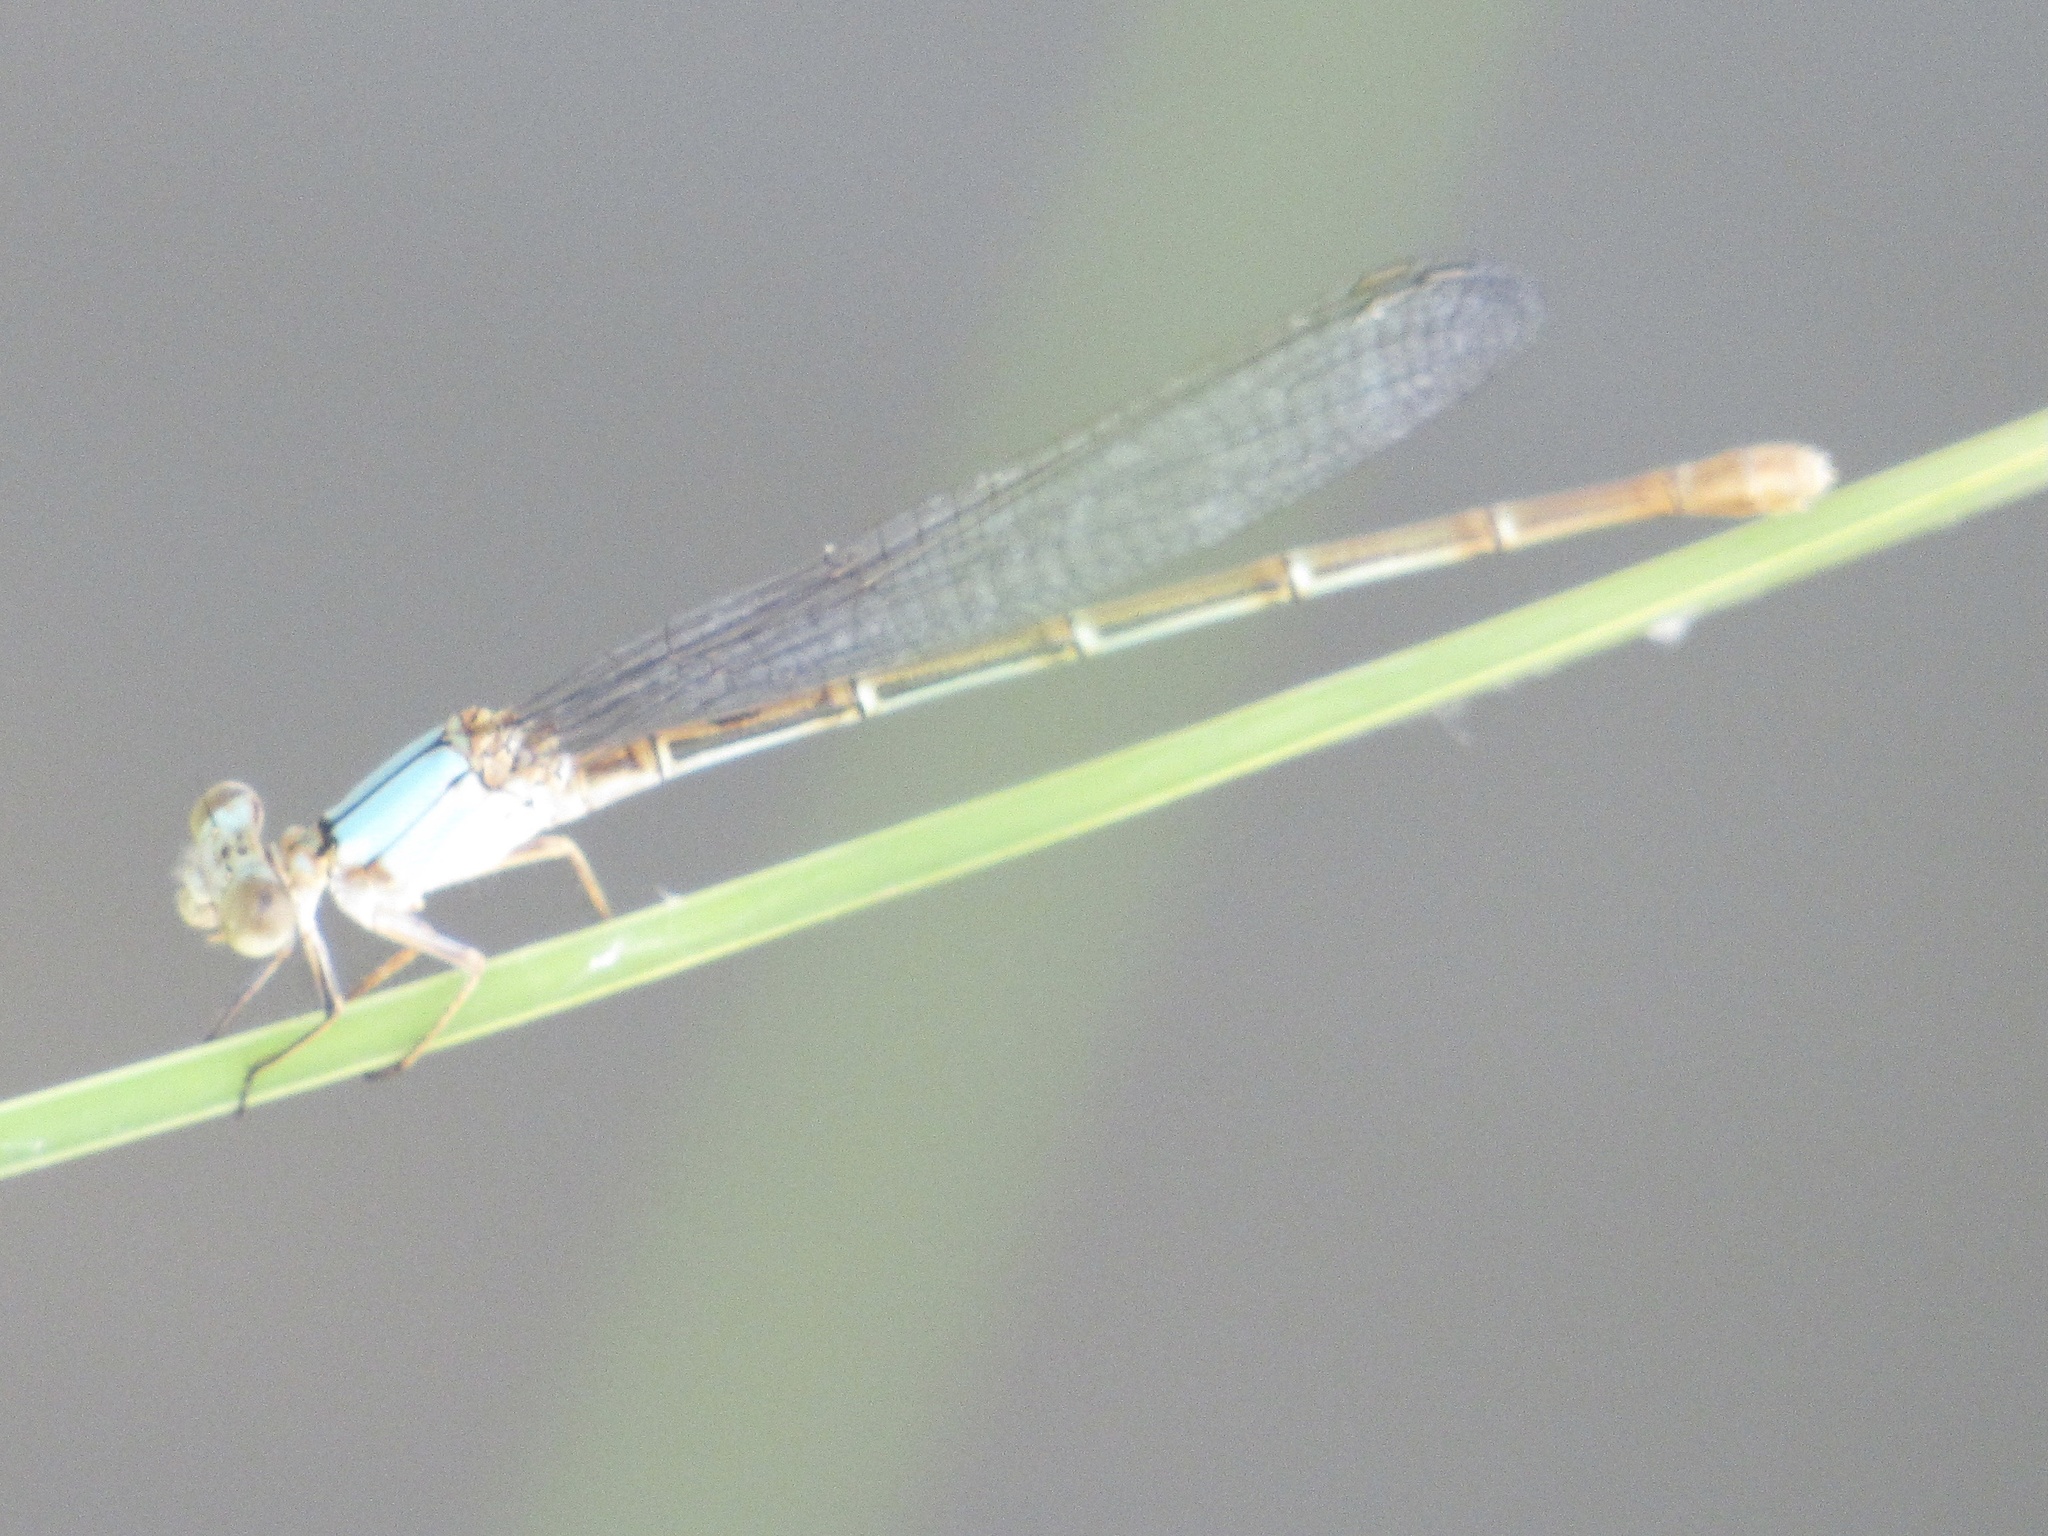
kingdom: Animalia
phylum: Arthropoda
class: Insecta
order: Odonata
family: Coenagrionidae
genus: Argia
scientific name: Argia moesta
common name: Powdered dancer
